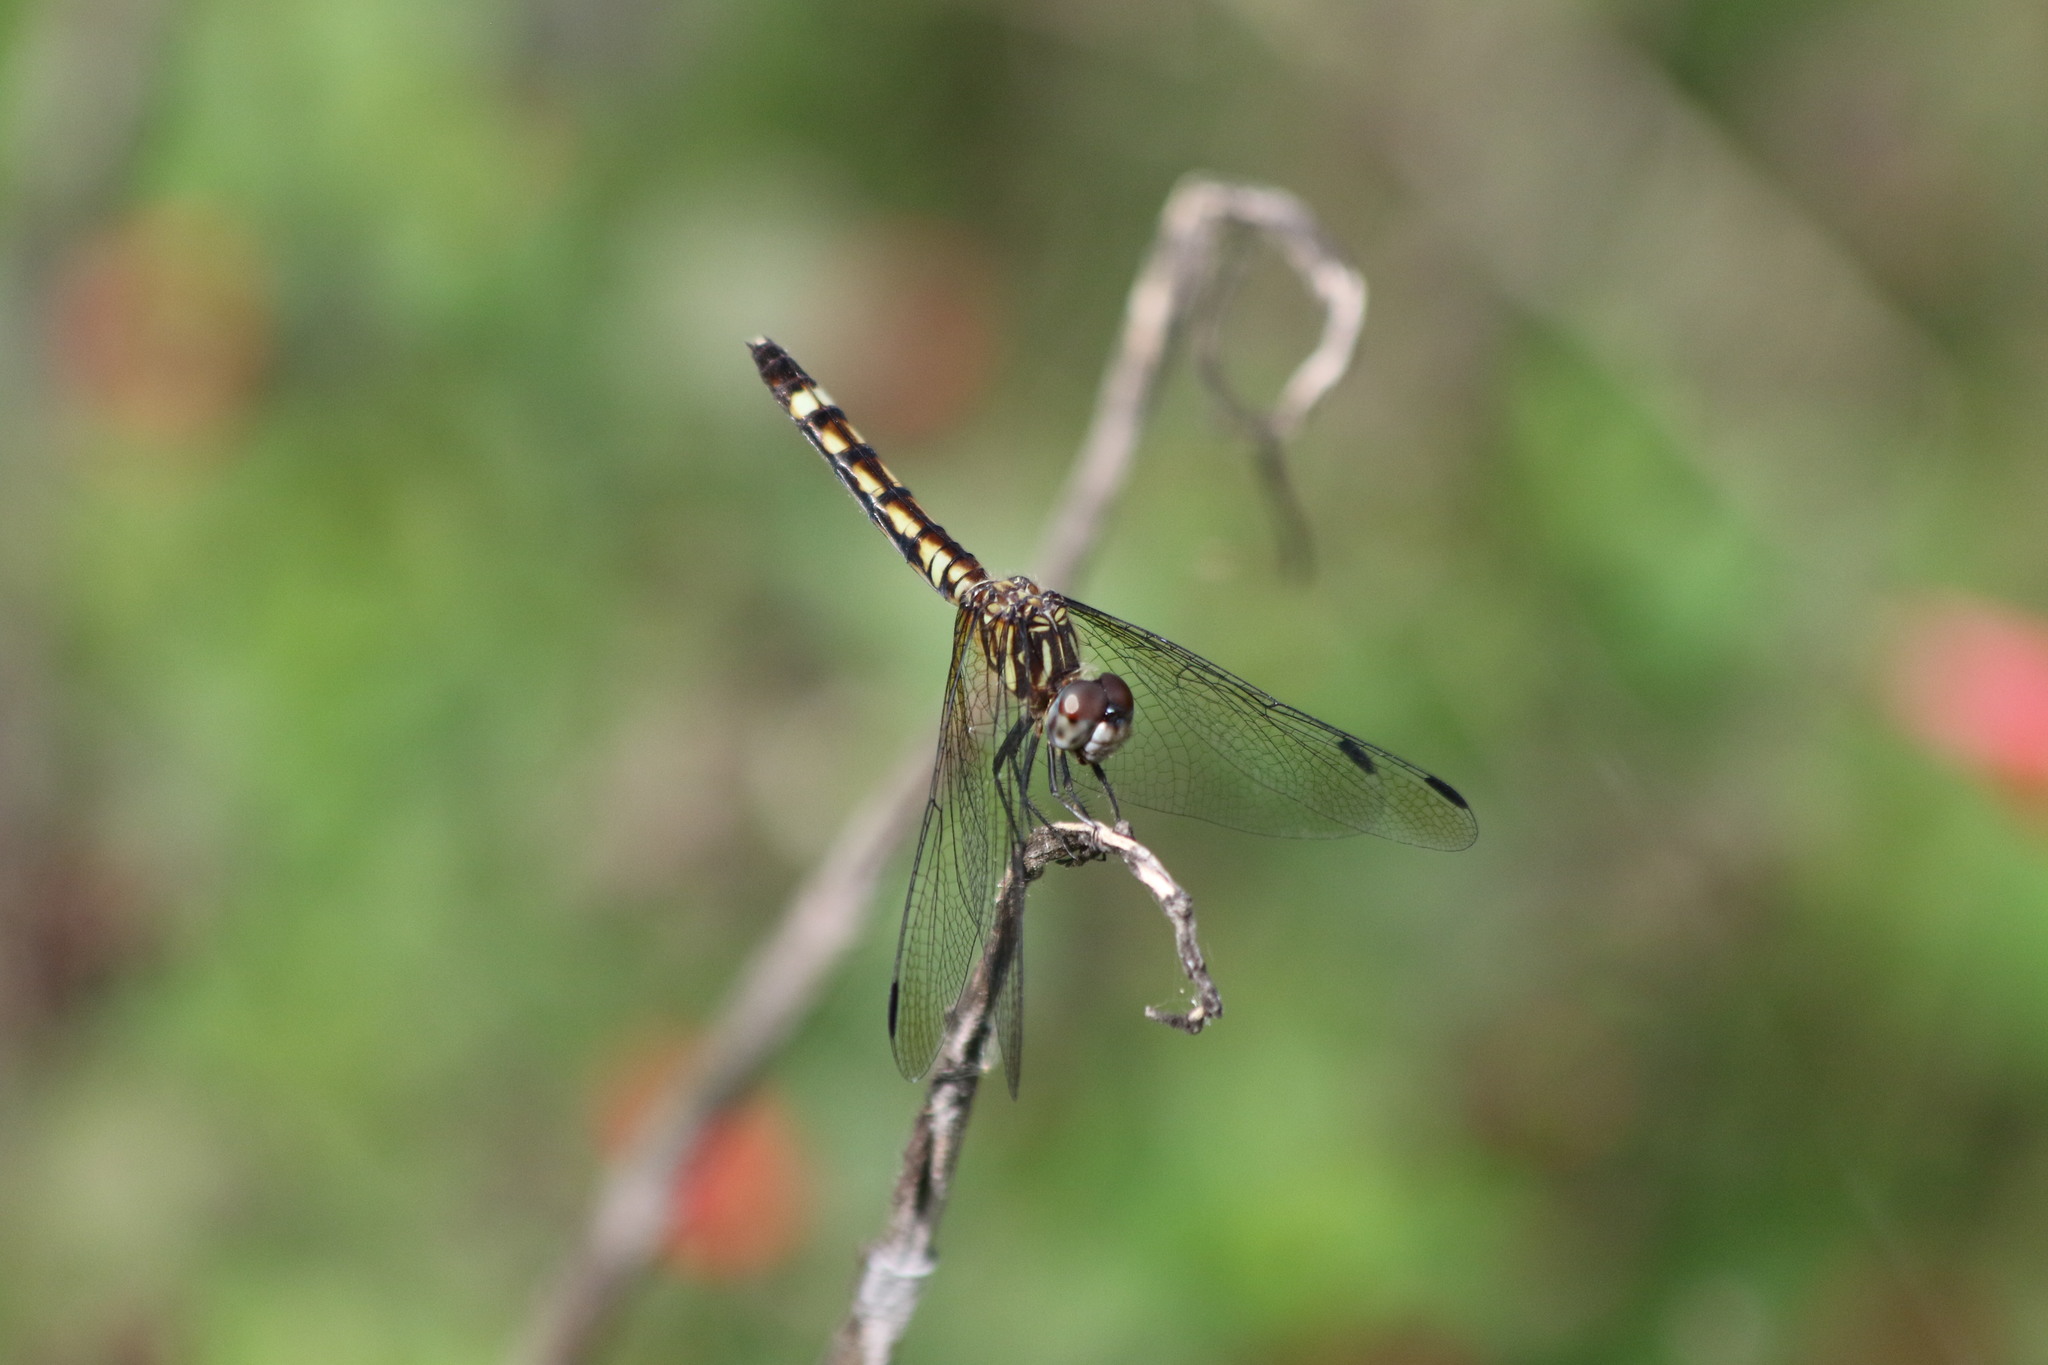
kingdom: Animalia
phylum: Arthropoda
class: Insecta
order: Odonata
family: Libellulidae
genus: Micrathyria
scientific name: Micrathyria hagenii
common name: Thornbush dasher
